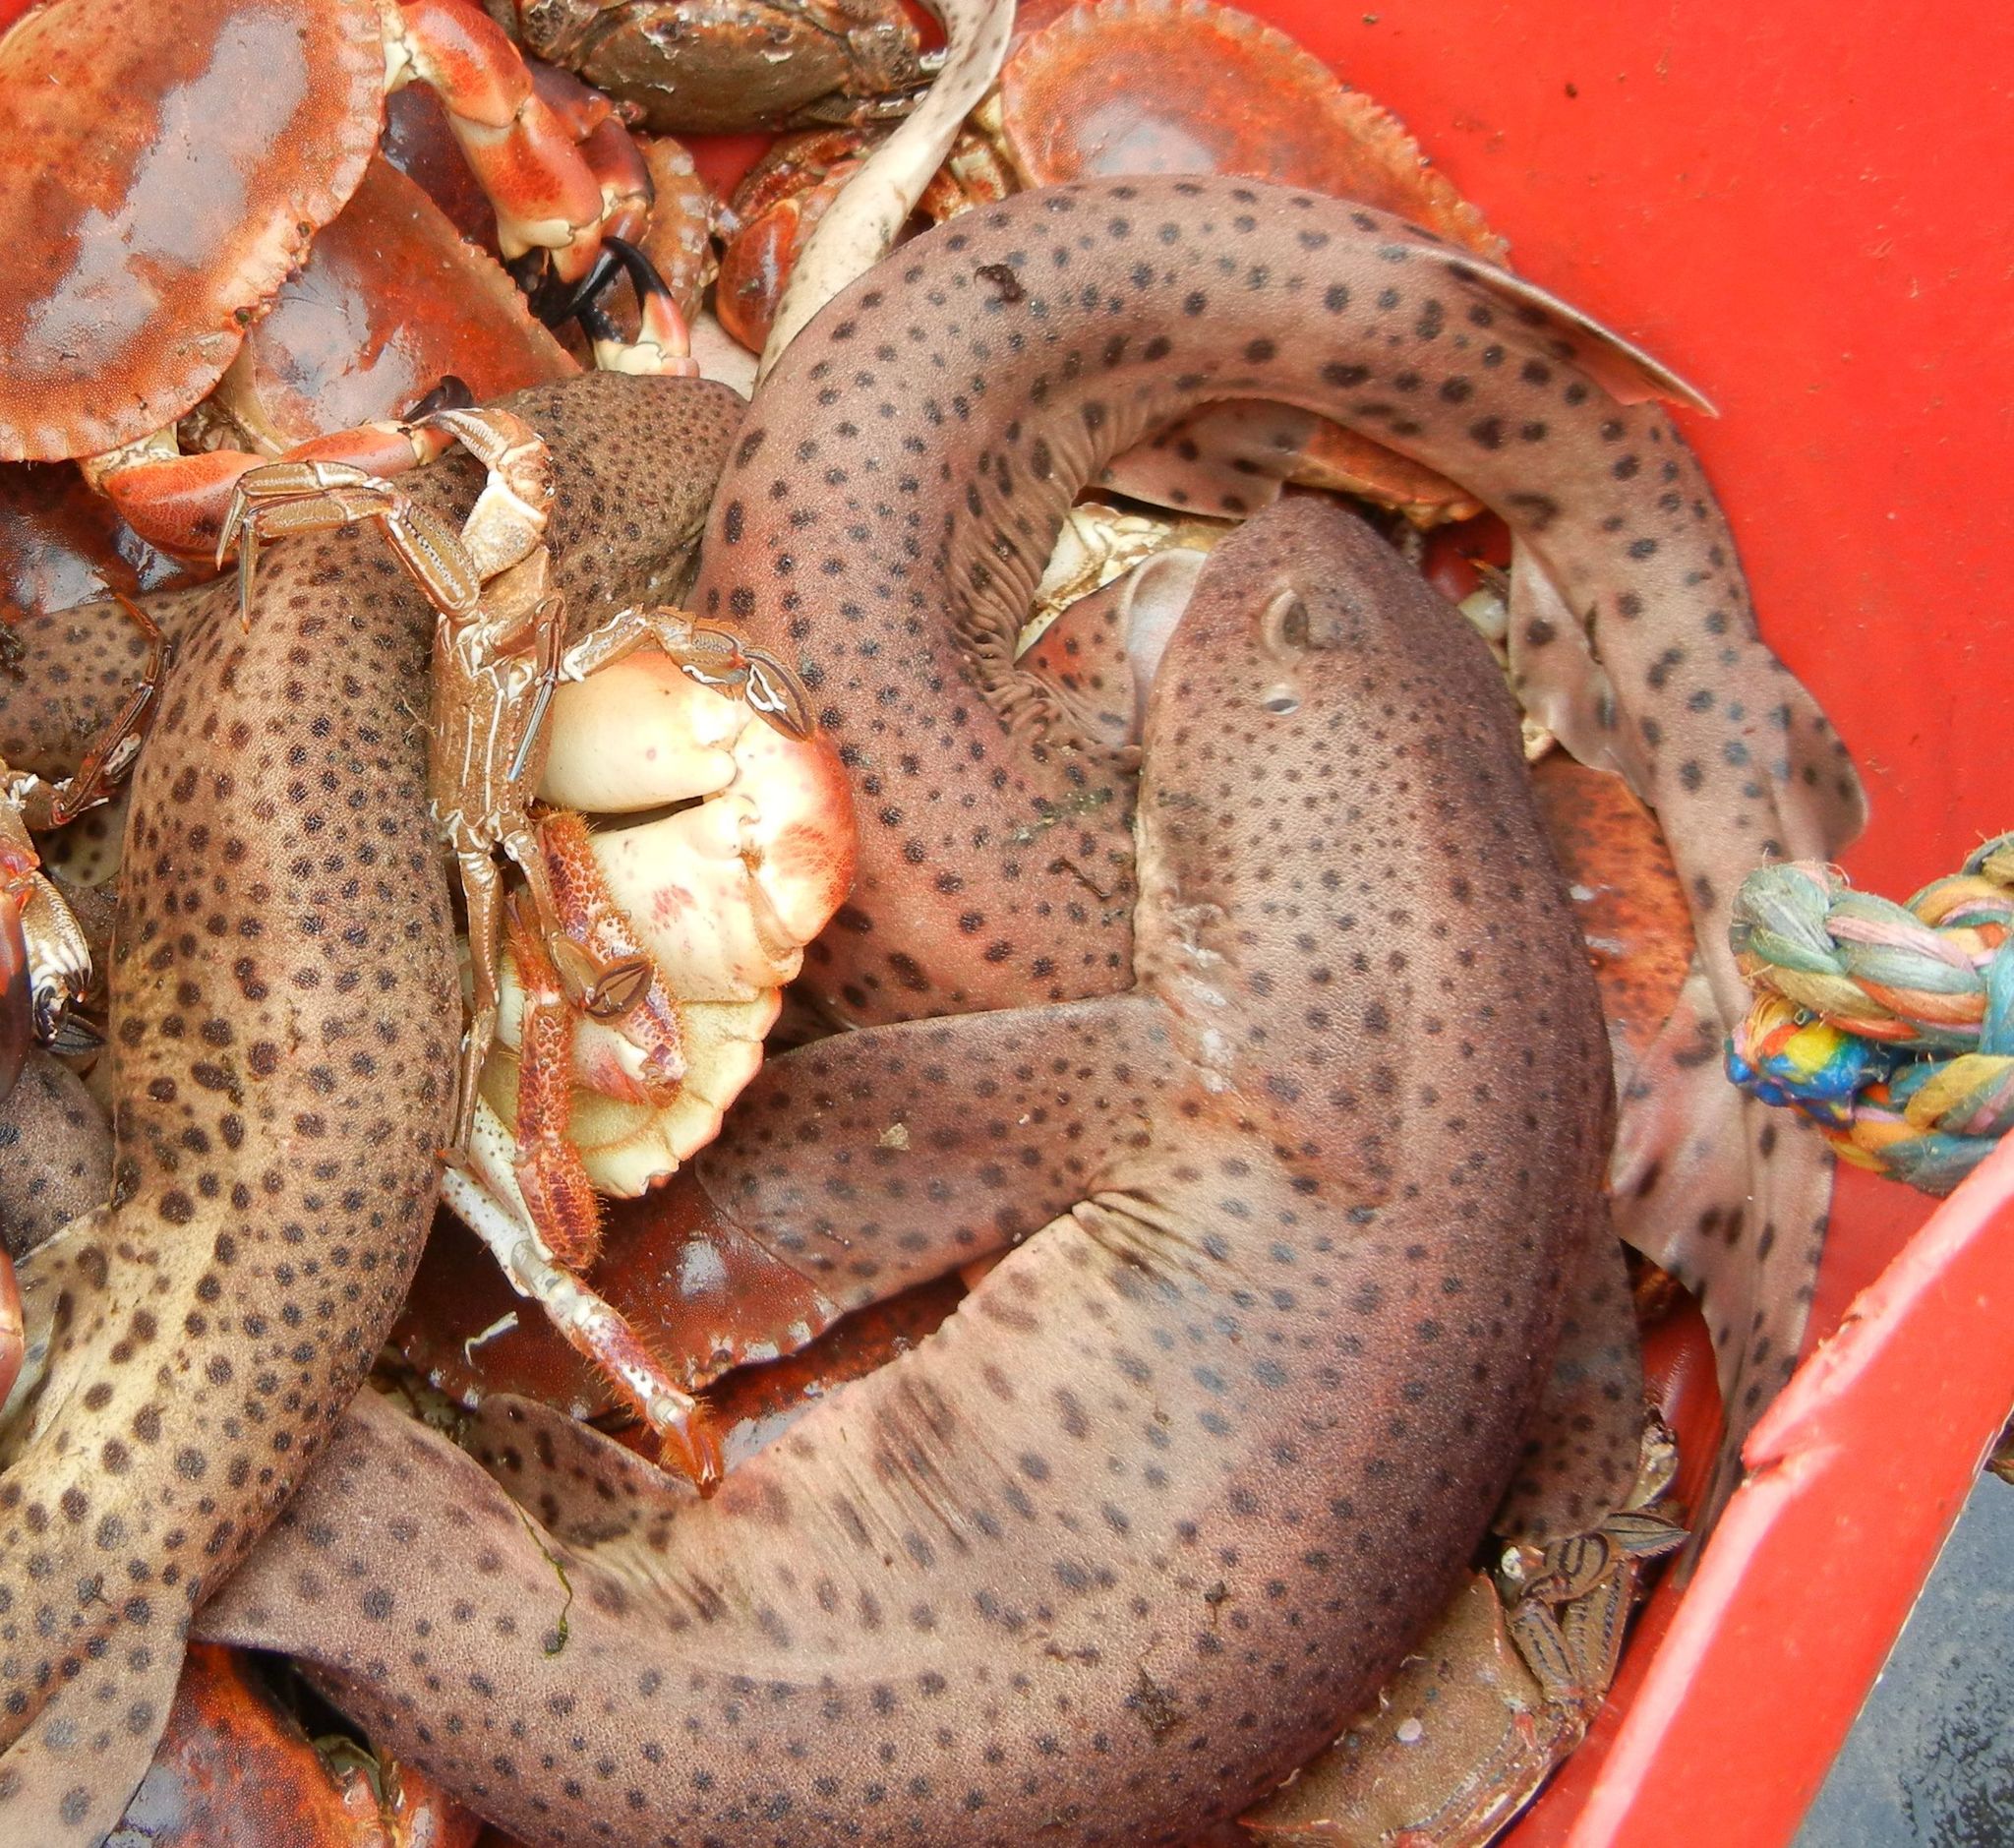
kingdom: Animalia
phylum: Chordata
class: Elasmobranchii
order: Carcharhiniformes
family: Scyliorhinidae
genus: Scyliorhinus
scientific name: Scyliorhinus canicula
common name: Lesser spotted dogfish
